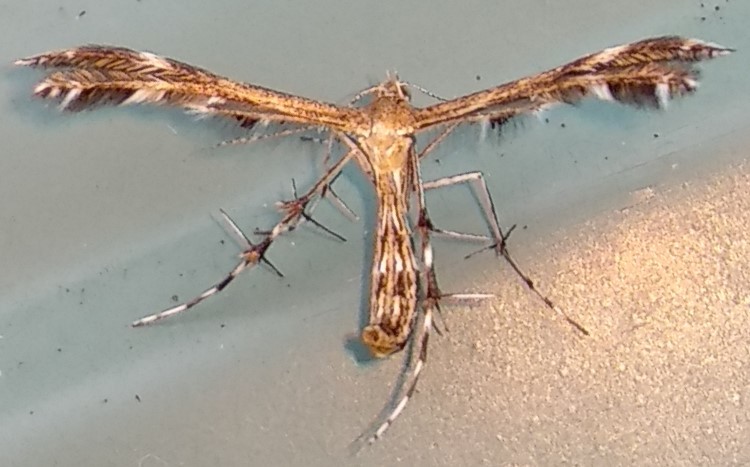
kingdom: Animalia
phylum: Arthropoda
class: Insecta
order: Lepidoptera
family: Pterophoridae
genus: Dejongia
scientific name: Dejongia lobidactylus
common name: Lobed plume moth
